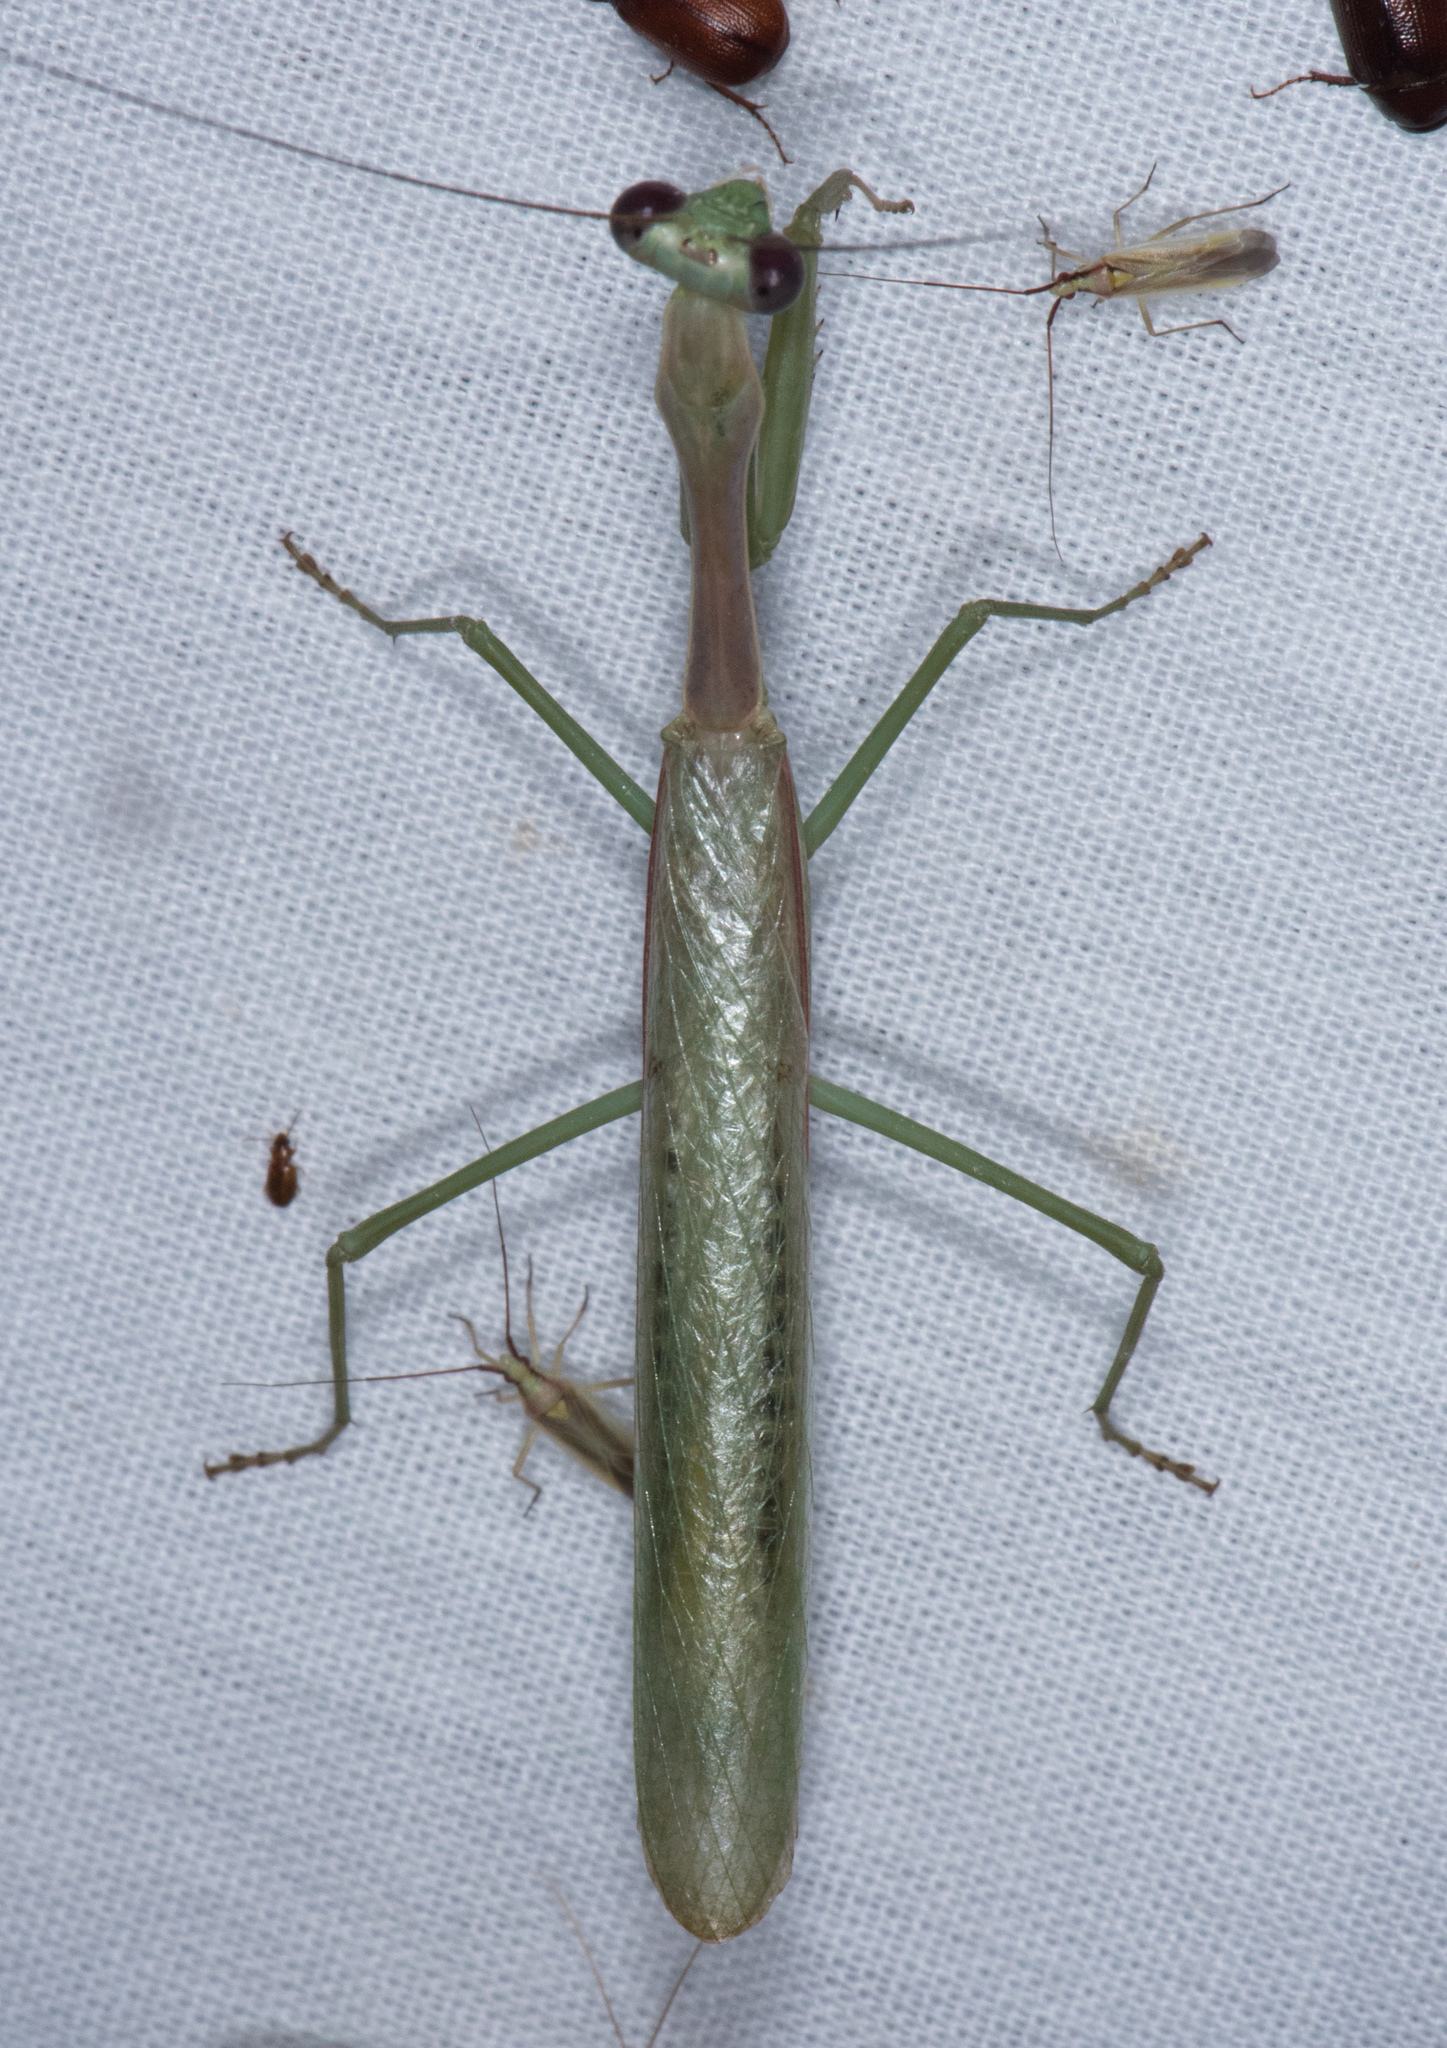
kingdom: Animalia
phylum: Arthropoda
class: Insecta
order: Mantodea
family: Mantidae
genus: Stagmomantis
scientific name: Stagmomantis limbata
